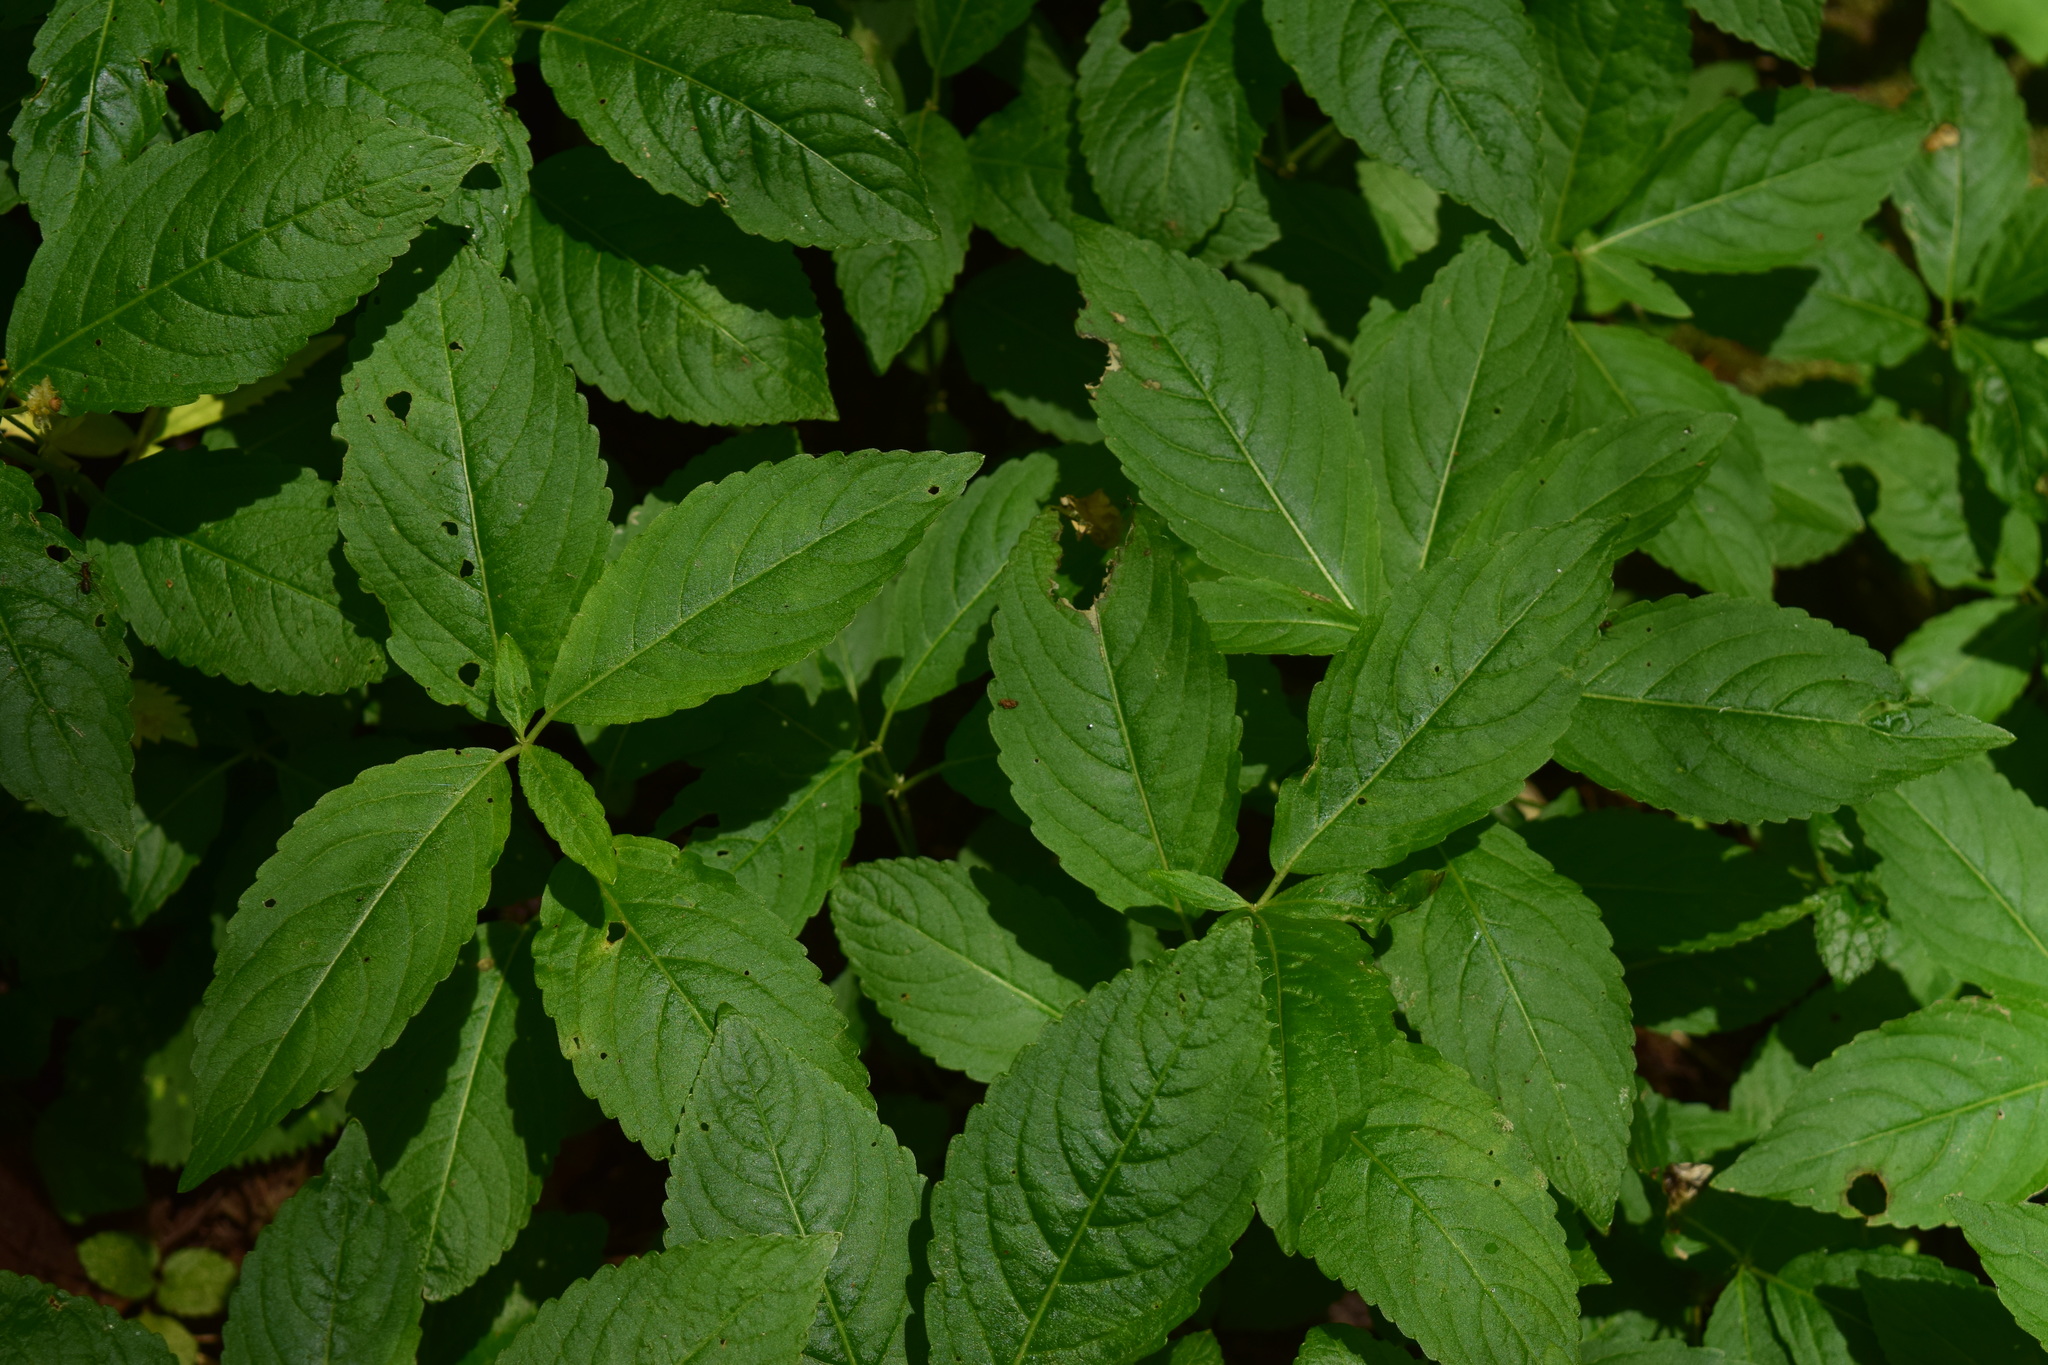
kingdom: Plantae
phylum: Tracheophyta
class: Magnoliopsida
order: Malpighiales
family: Euphorbiaceae
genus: Mercurialis
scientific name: Mercurialis perennis
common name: Dog mercury
